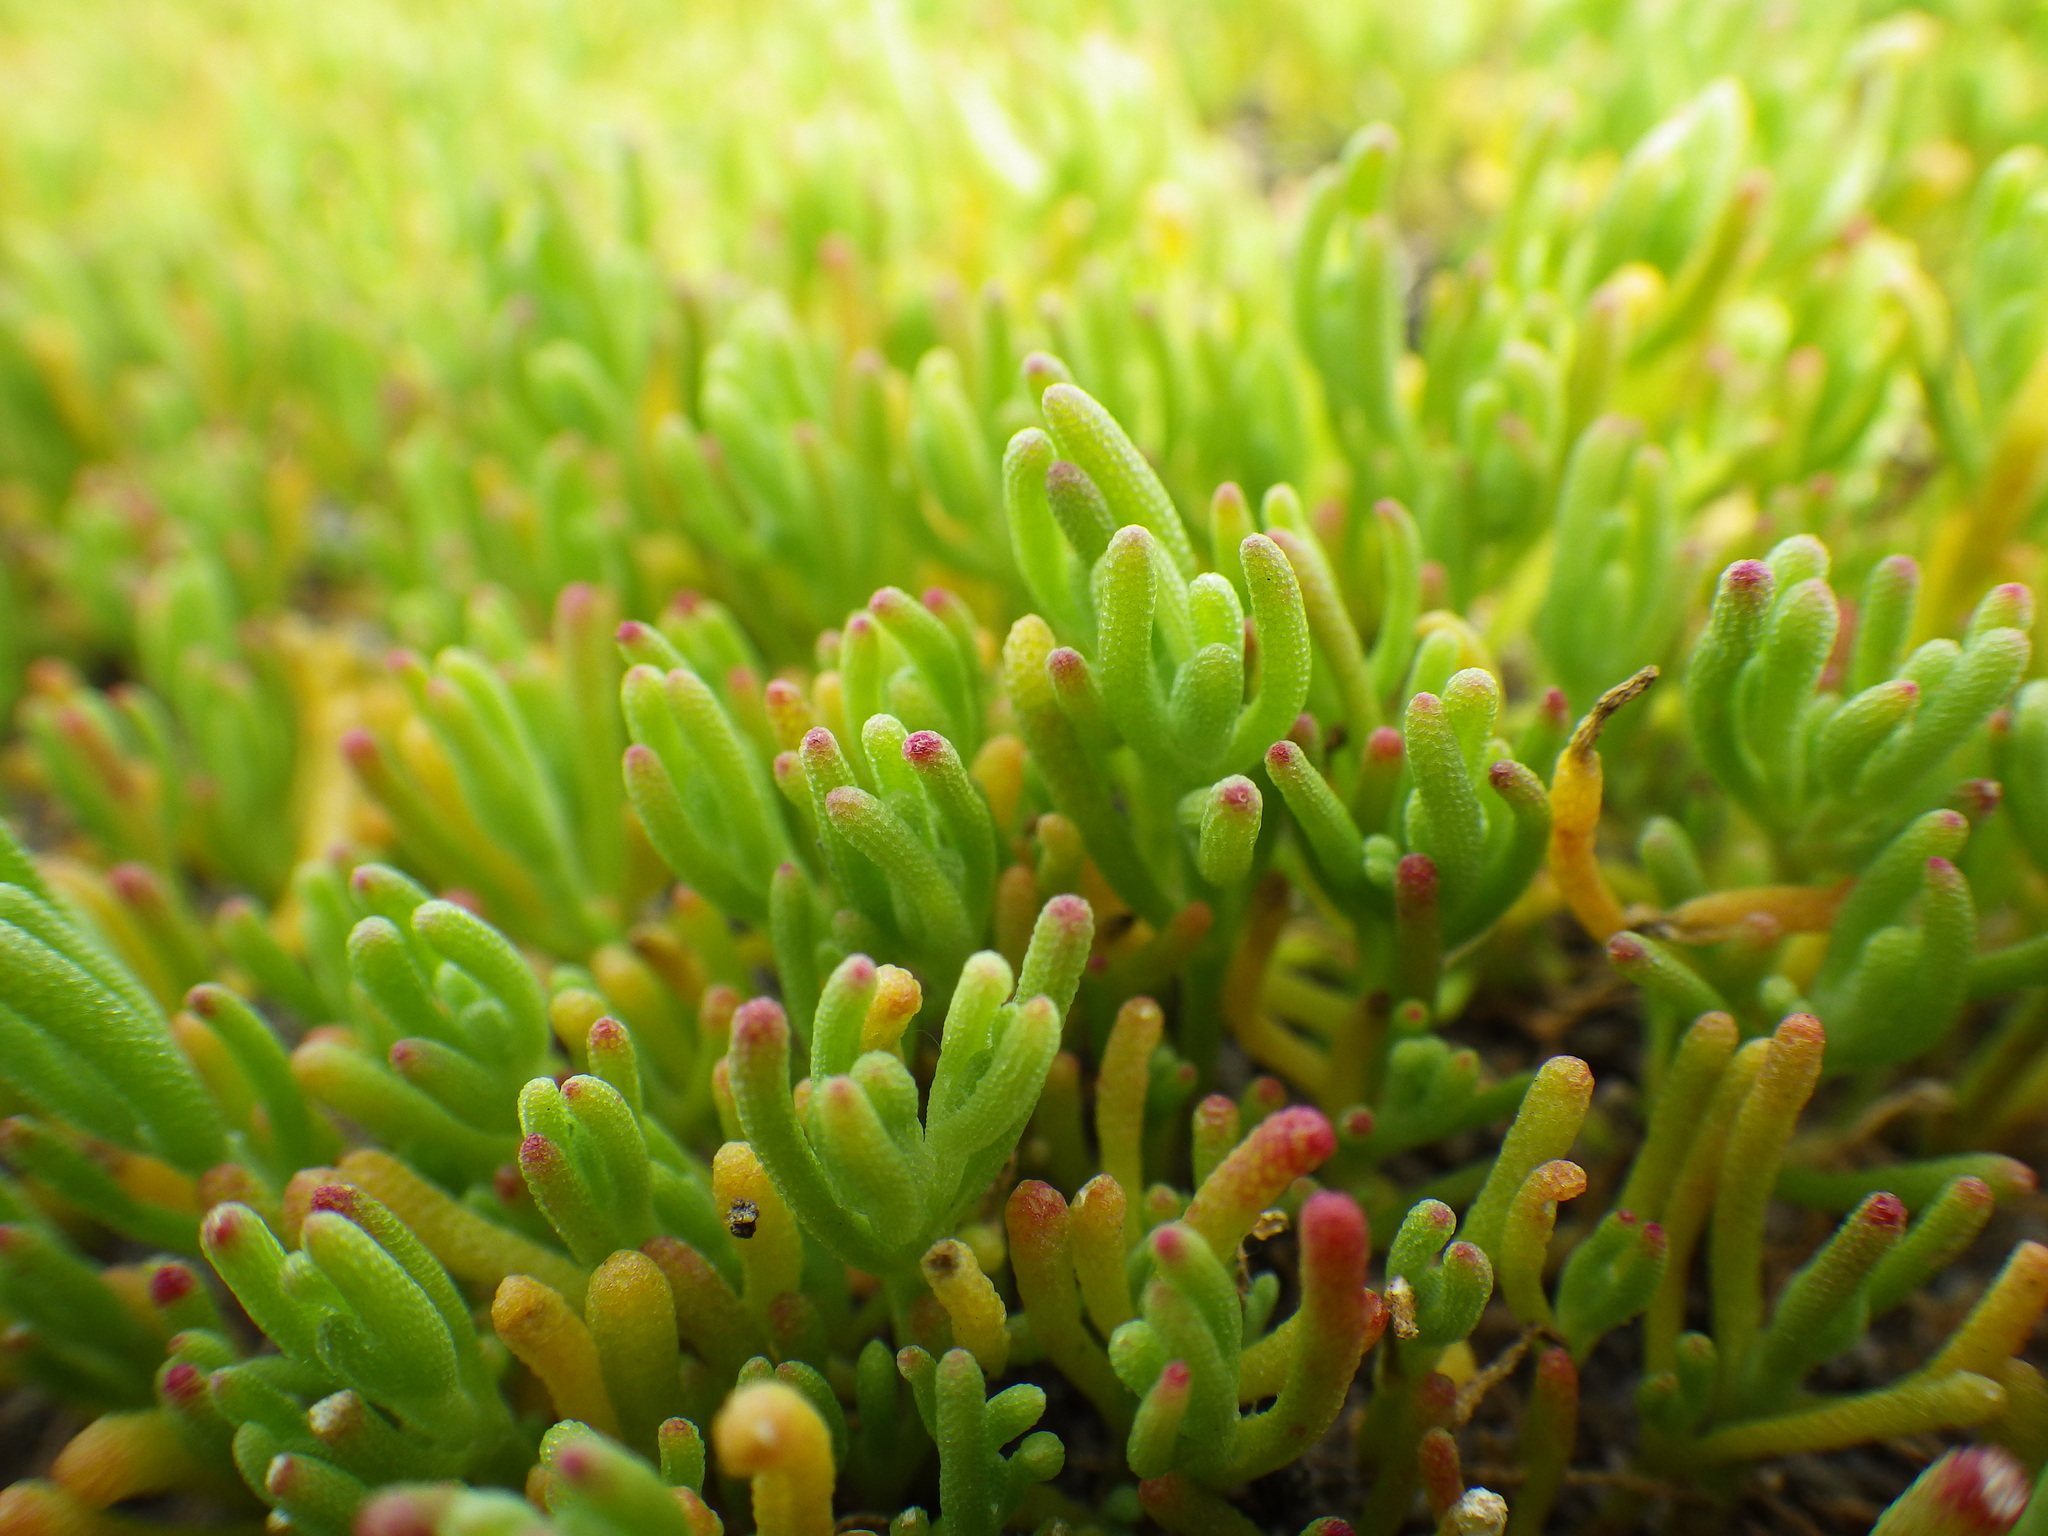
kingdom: Plantae
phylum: Tracheophyta
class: Magnoliopsida
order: Caryophyllales
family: Aizoaceae
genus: Mesembryanthemum
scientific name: Mesembryanthemum nodiflorum
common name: Slenderleaf iceplant
